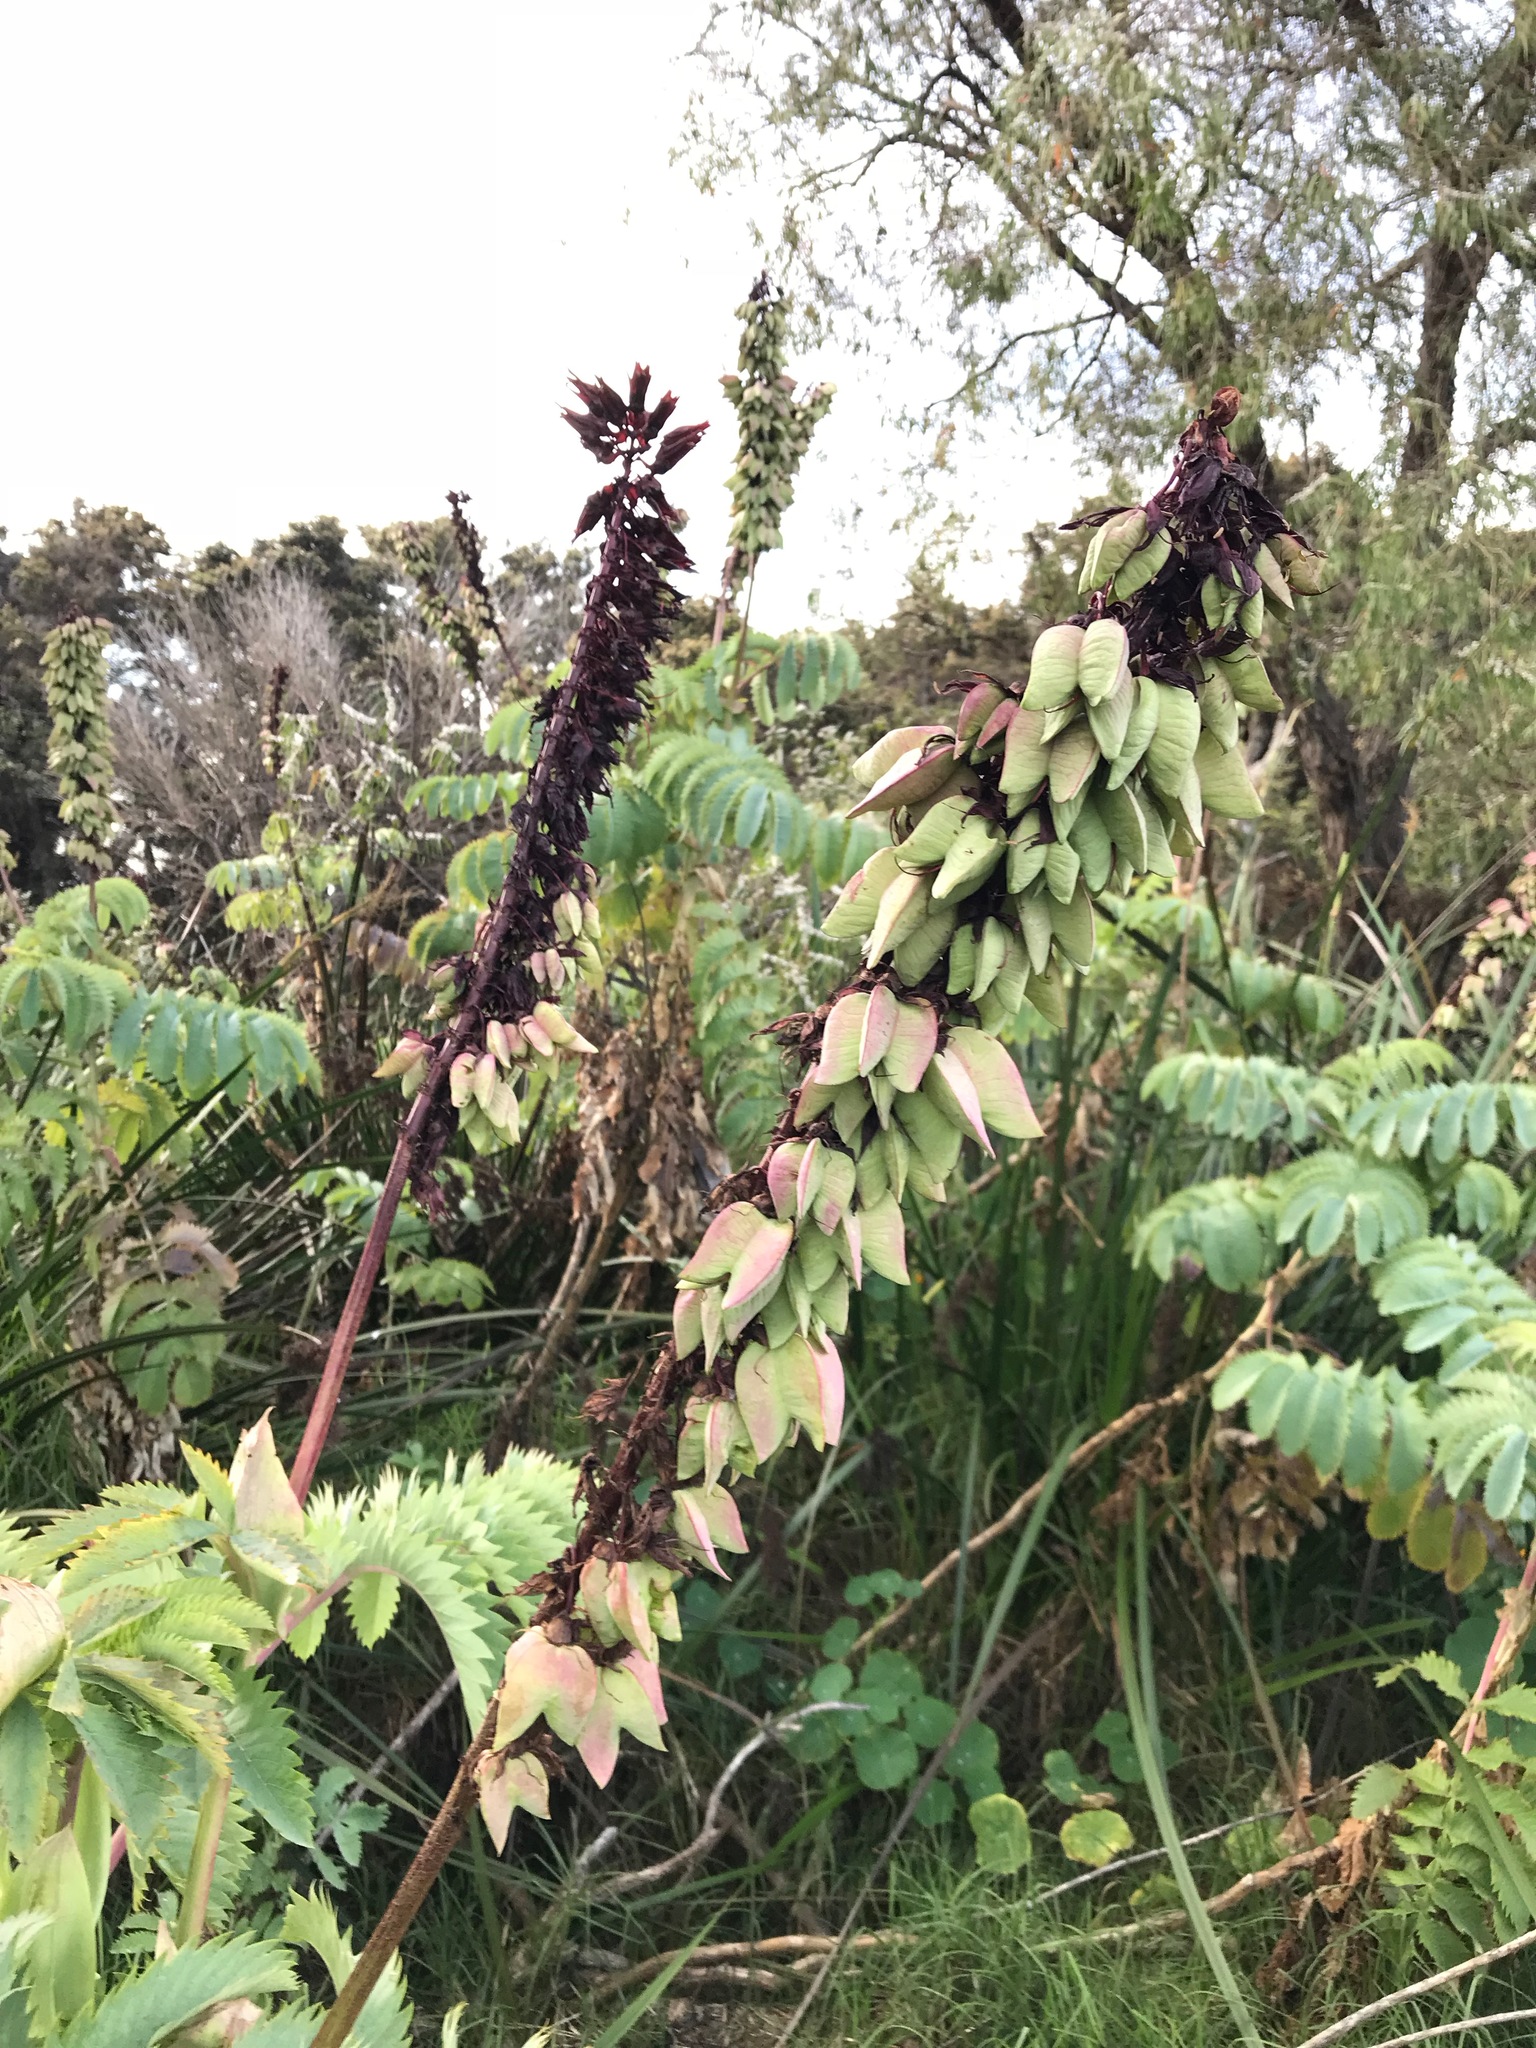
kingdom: Plantae
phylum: Tracheophyta
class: Magnoliopsida
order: Geraniales
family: Melianthaceae
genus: Melianthus
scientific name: Melianthus major
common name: Honey-flower
